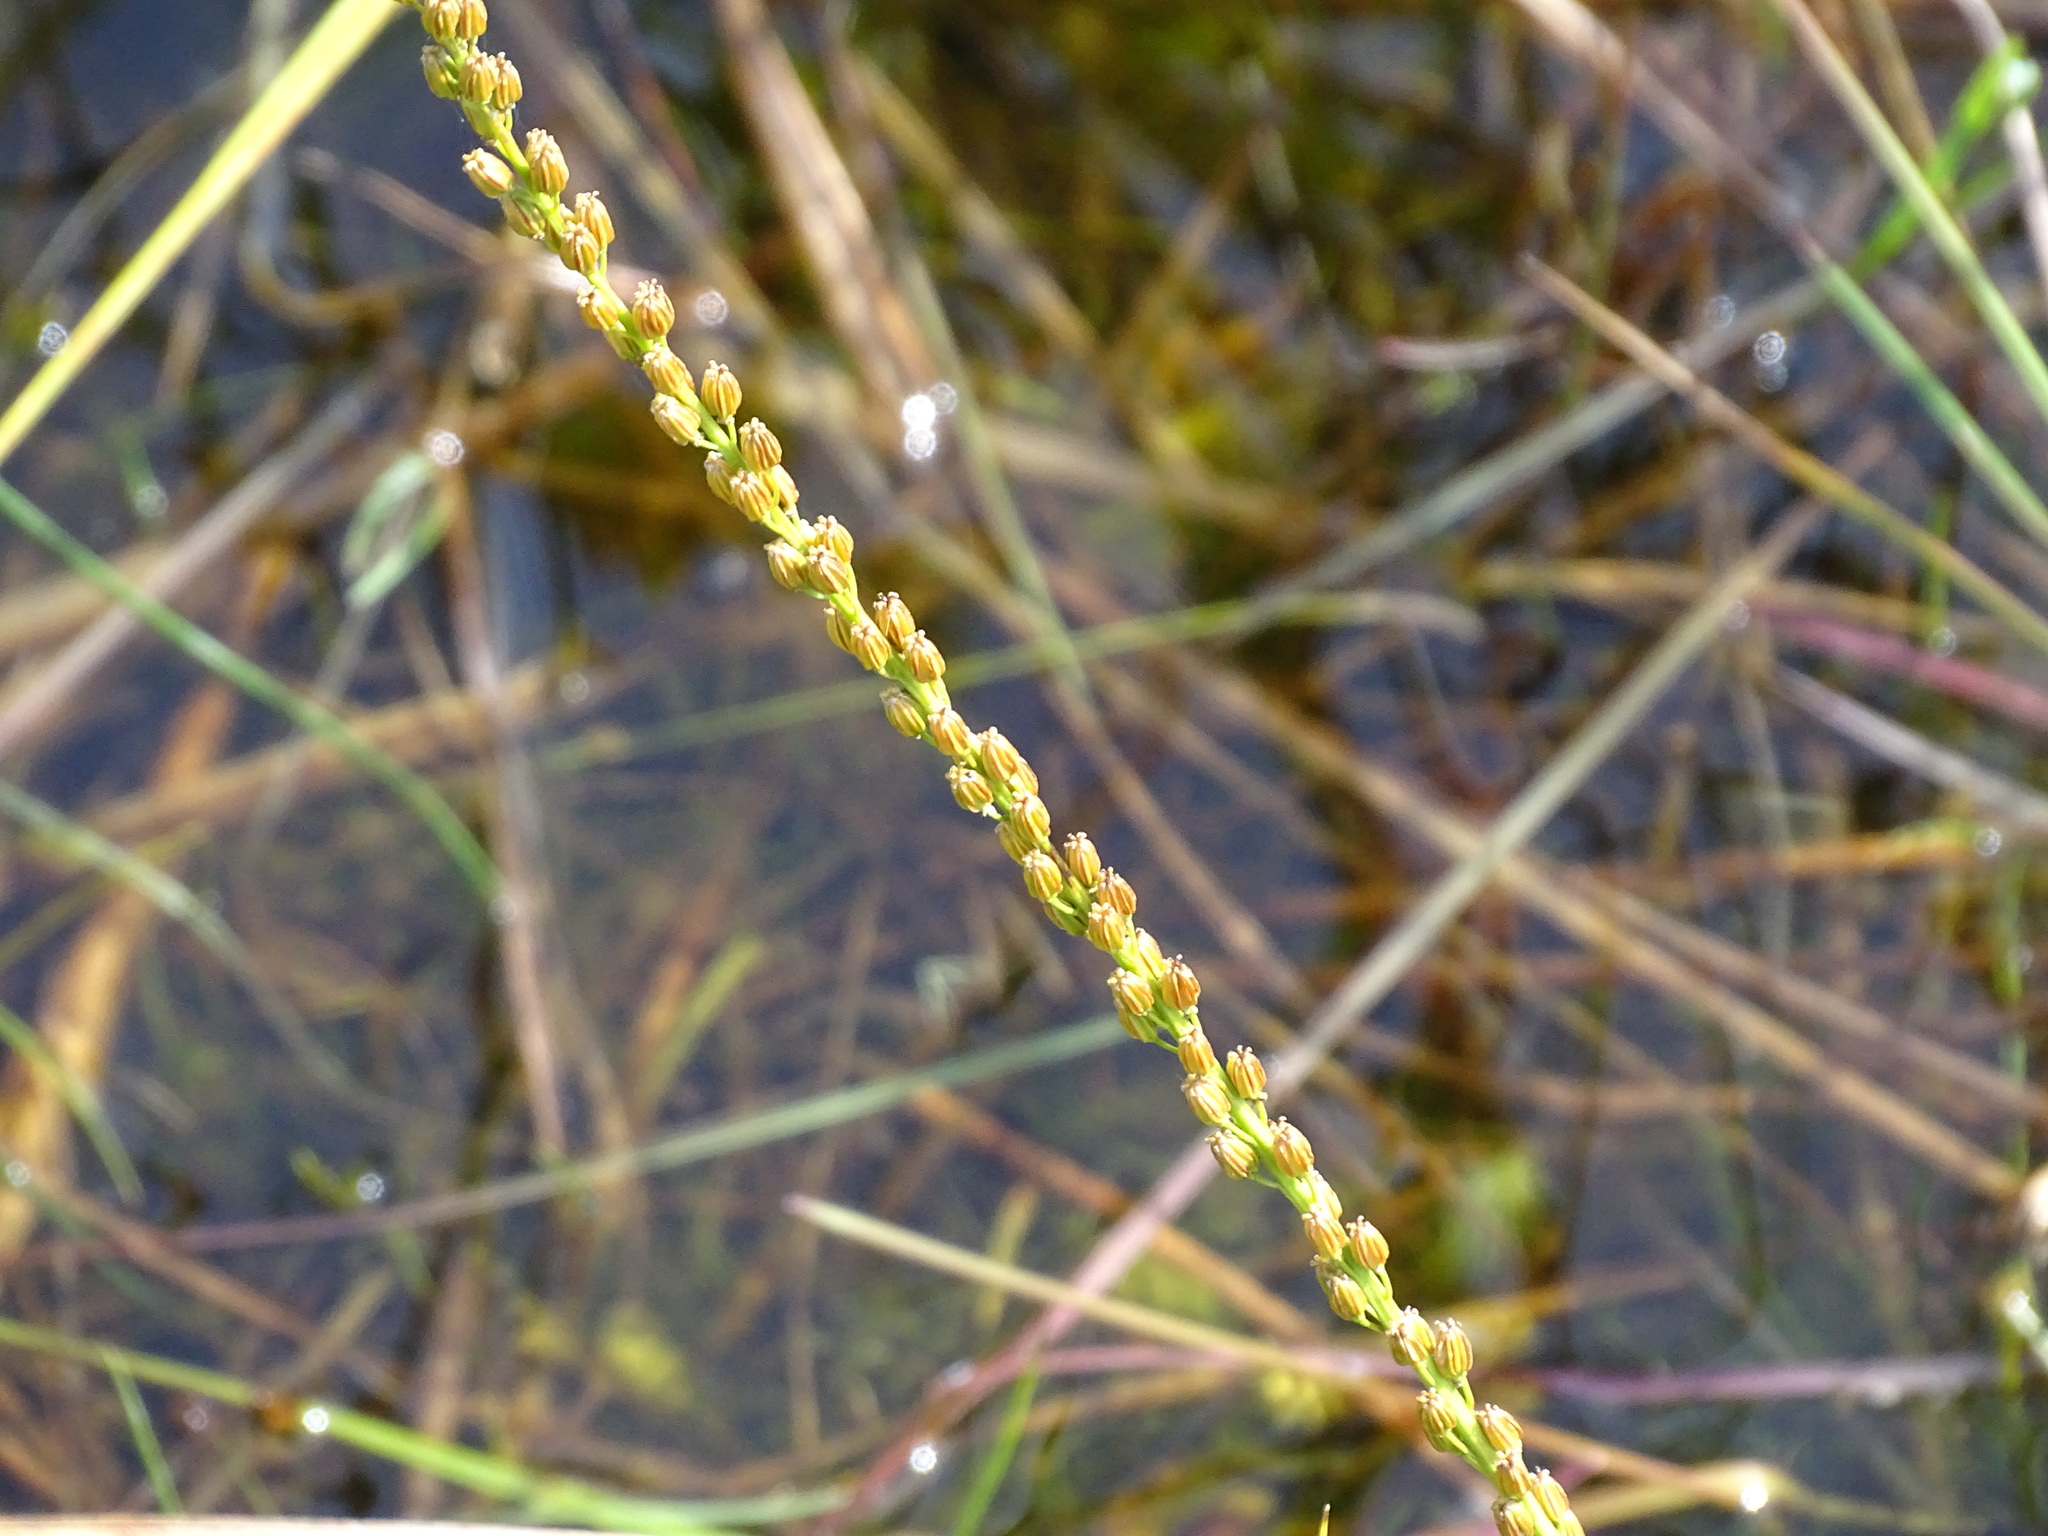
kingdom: Plantae
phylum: Tracheophyta
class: Liliopsida
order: Alismatales
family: Juncaginaceae
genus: Triglochin
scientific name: Triglochin maritima
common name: Sea arrowgrass
